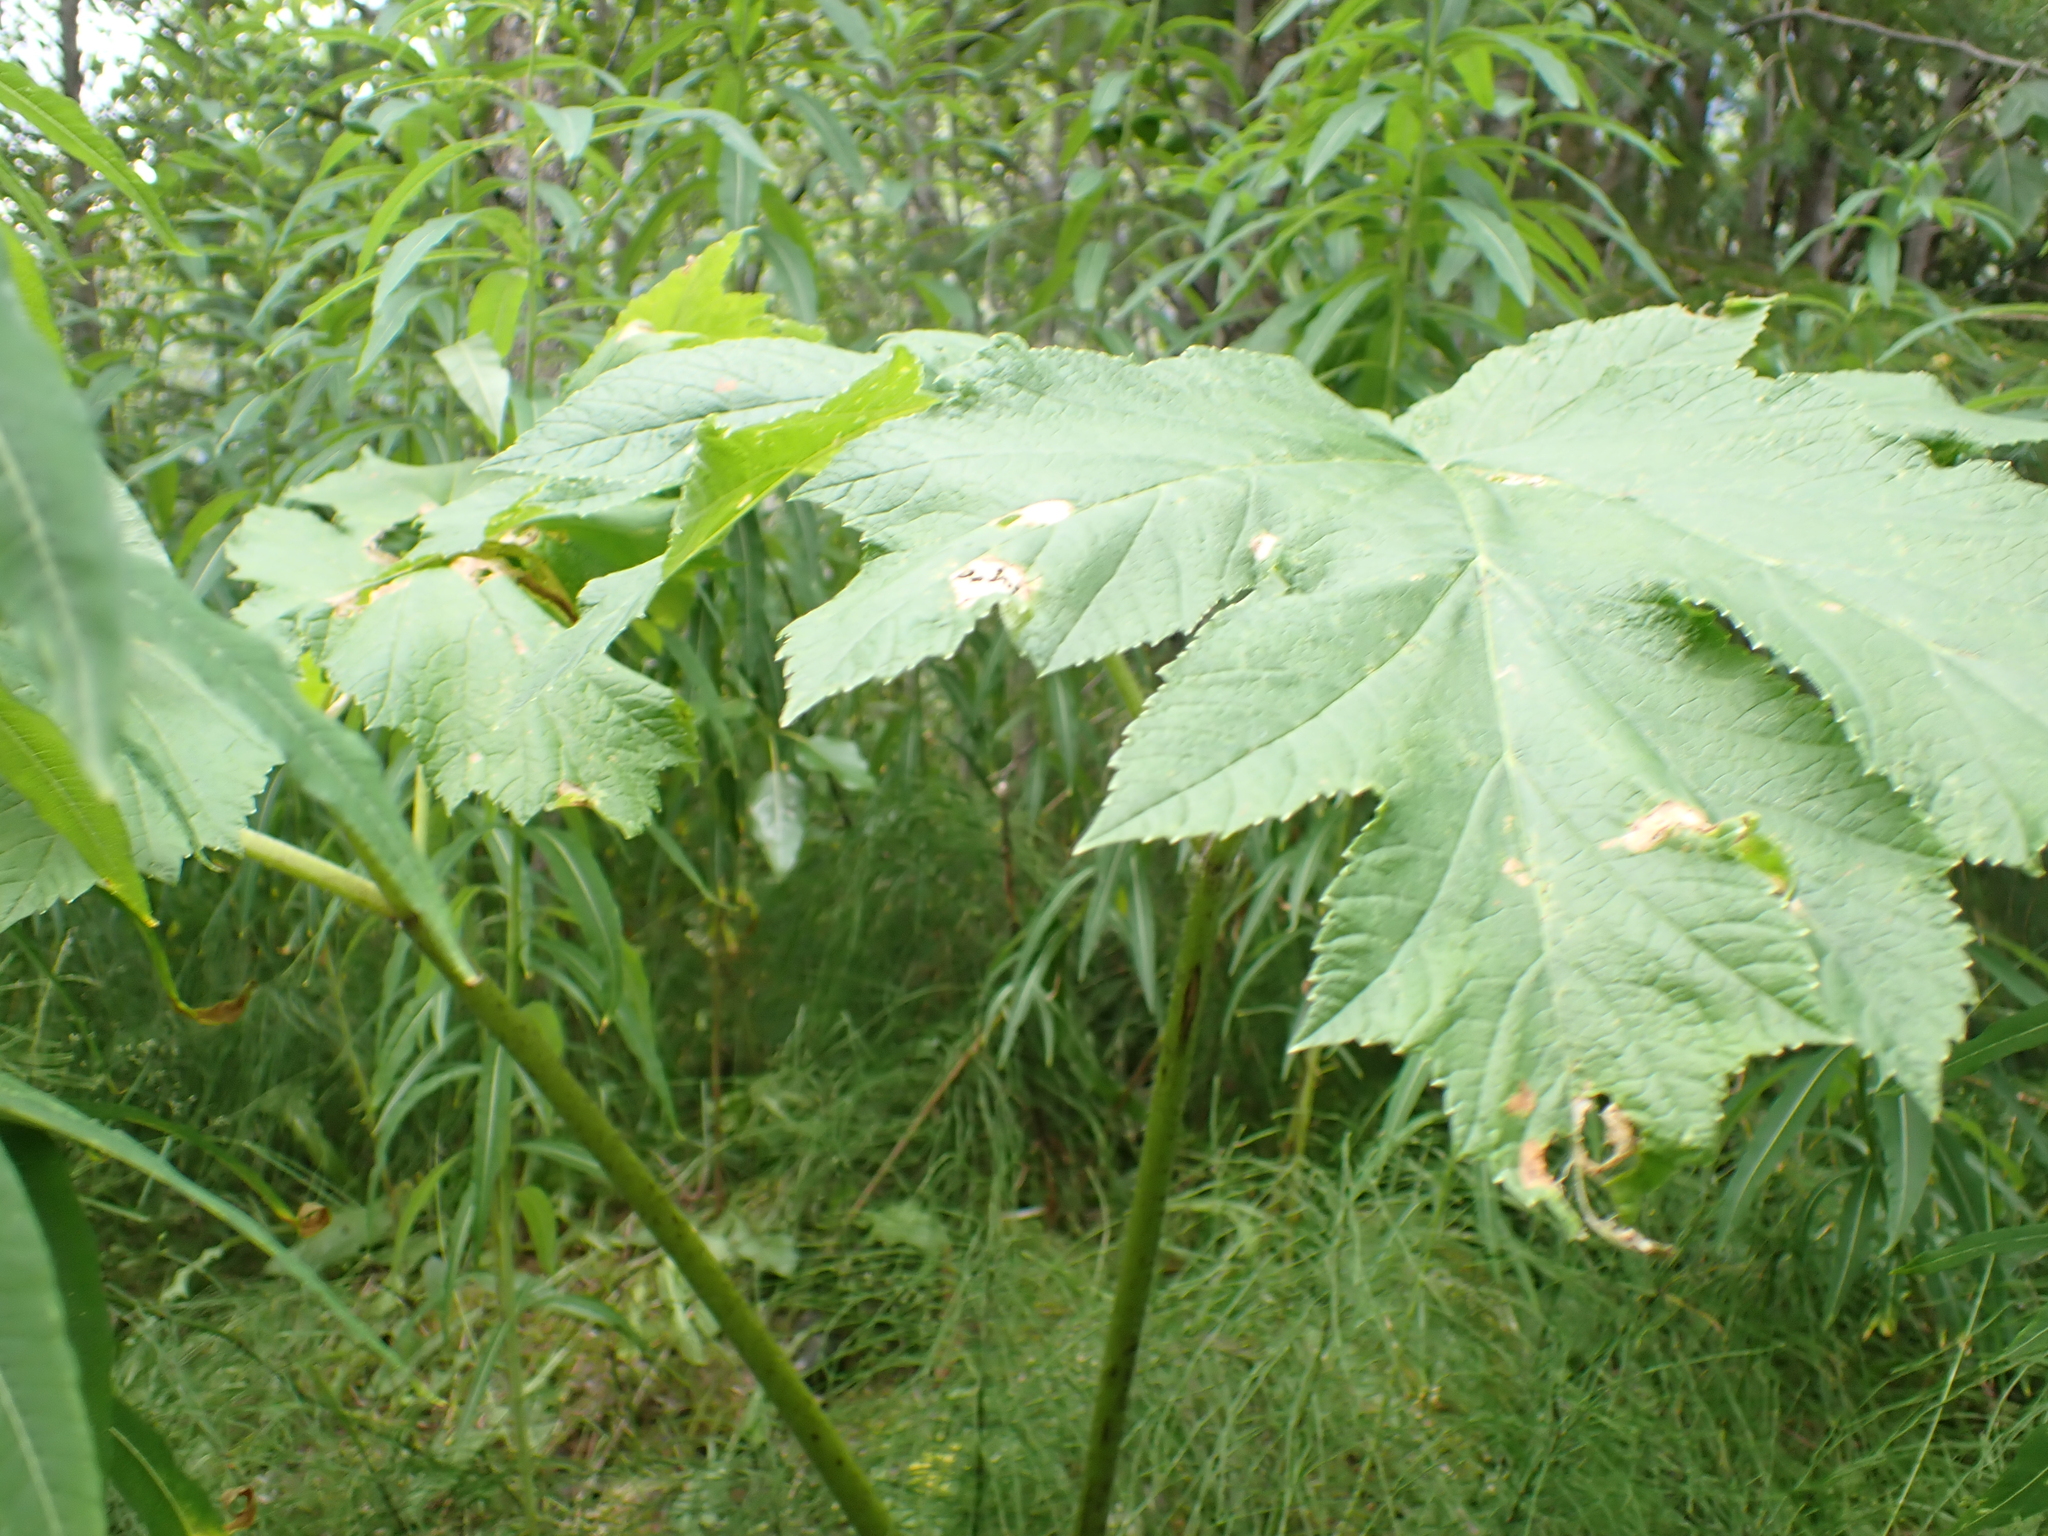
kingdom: Plantae
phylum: Tracheophyta
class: Magnoliopsida
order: Apiales
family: Apiaceae
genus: Heracleum
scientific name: Heracleum maximum
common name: American cow parsnip
